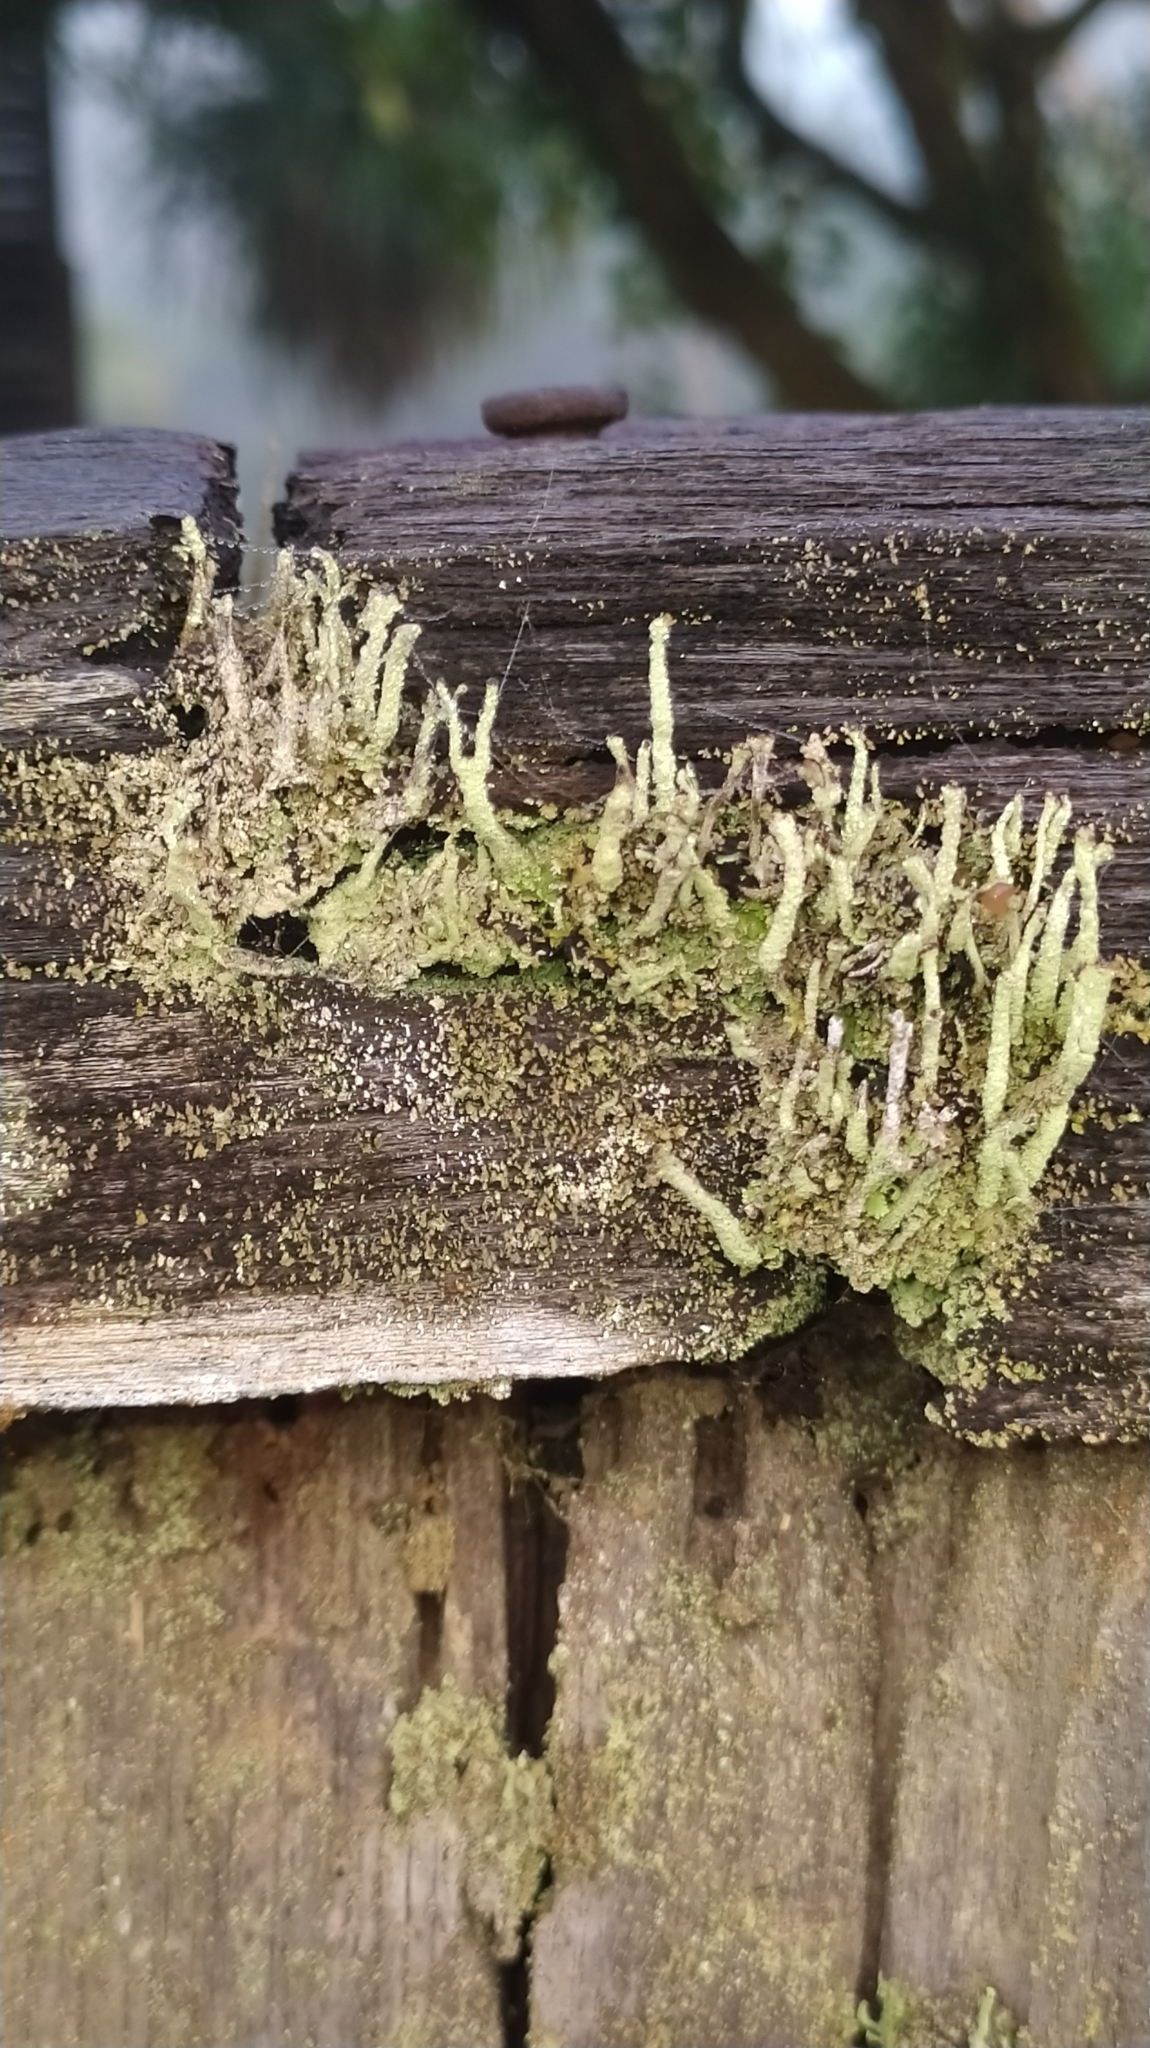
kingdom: Fungi
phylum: Ascomycota
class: Lecanoromycetes
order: Lecanorales
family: Cladoniaceae
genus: Cladonia
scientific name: Cladonia
